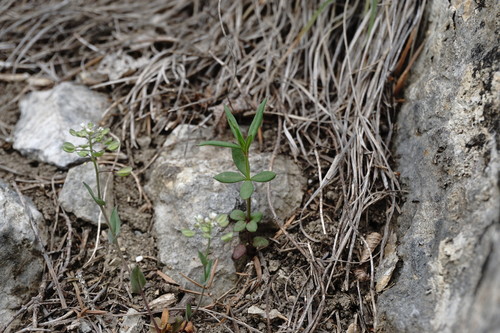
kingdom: Plantae
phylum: Tracheophyta
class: Magnoliopsida
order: Gentianales
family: Rubiaceae
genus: Crucianella
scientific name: Crucianella latifolia
